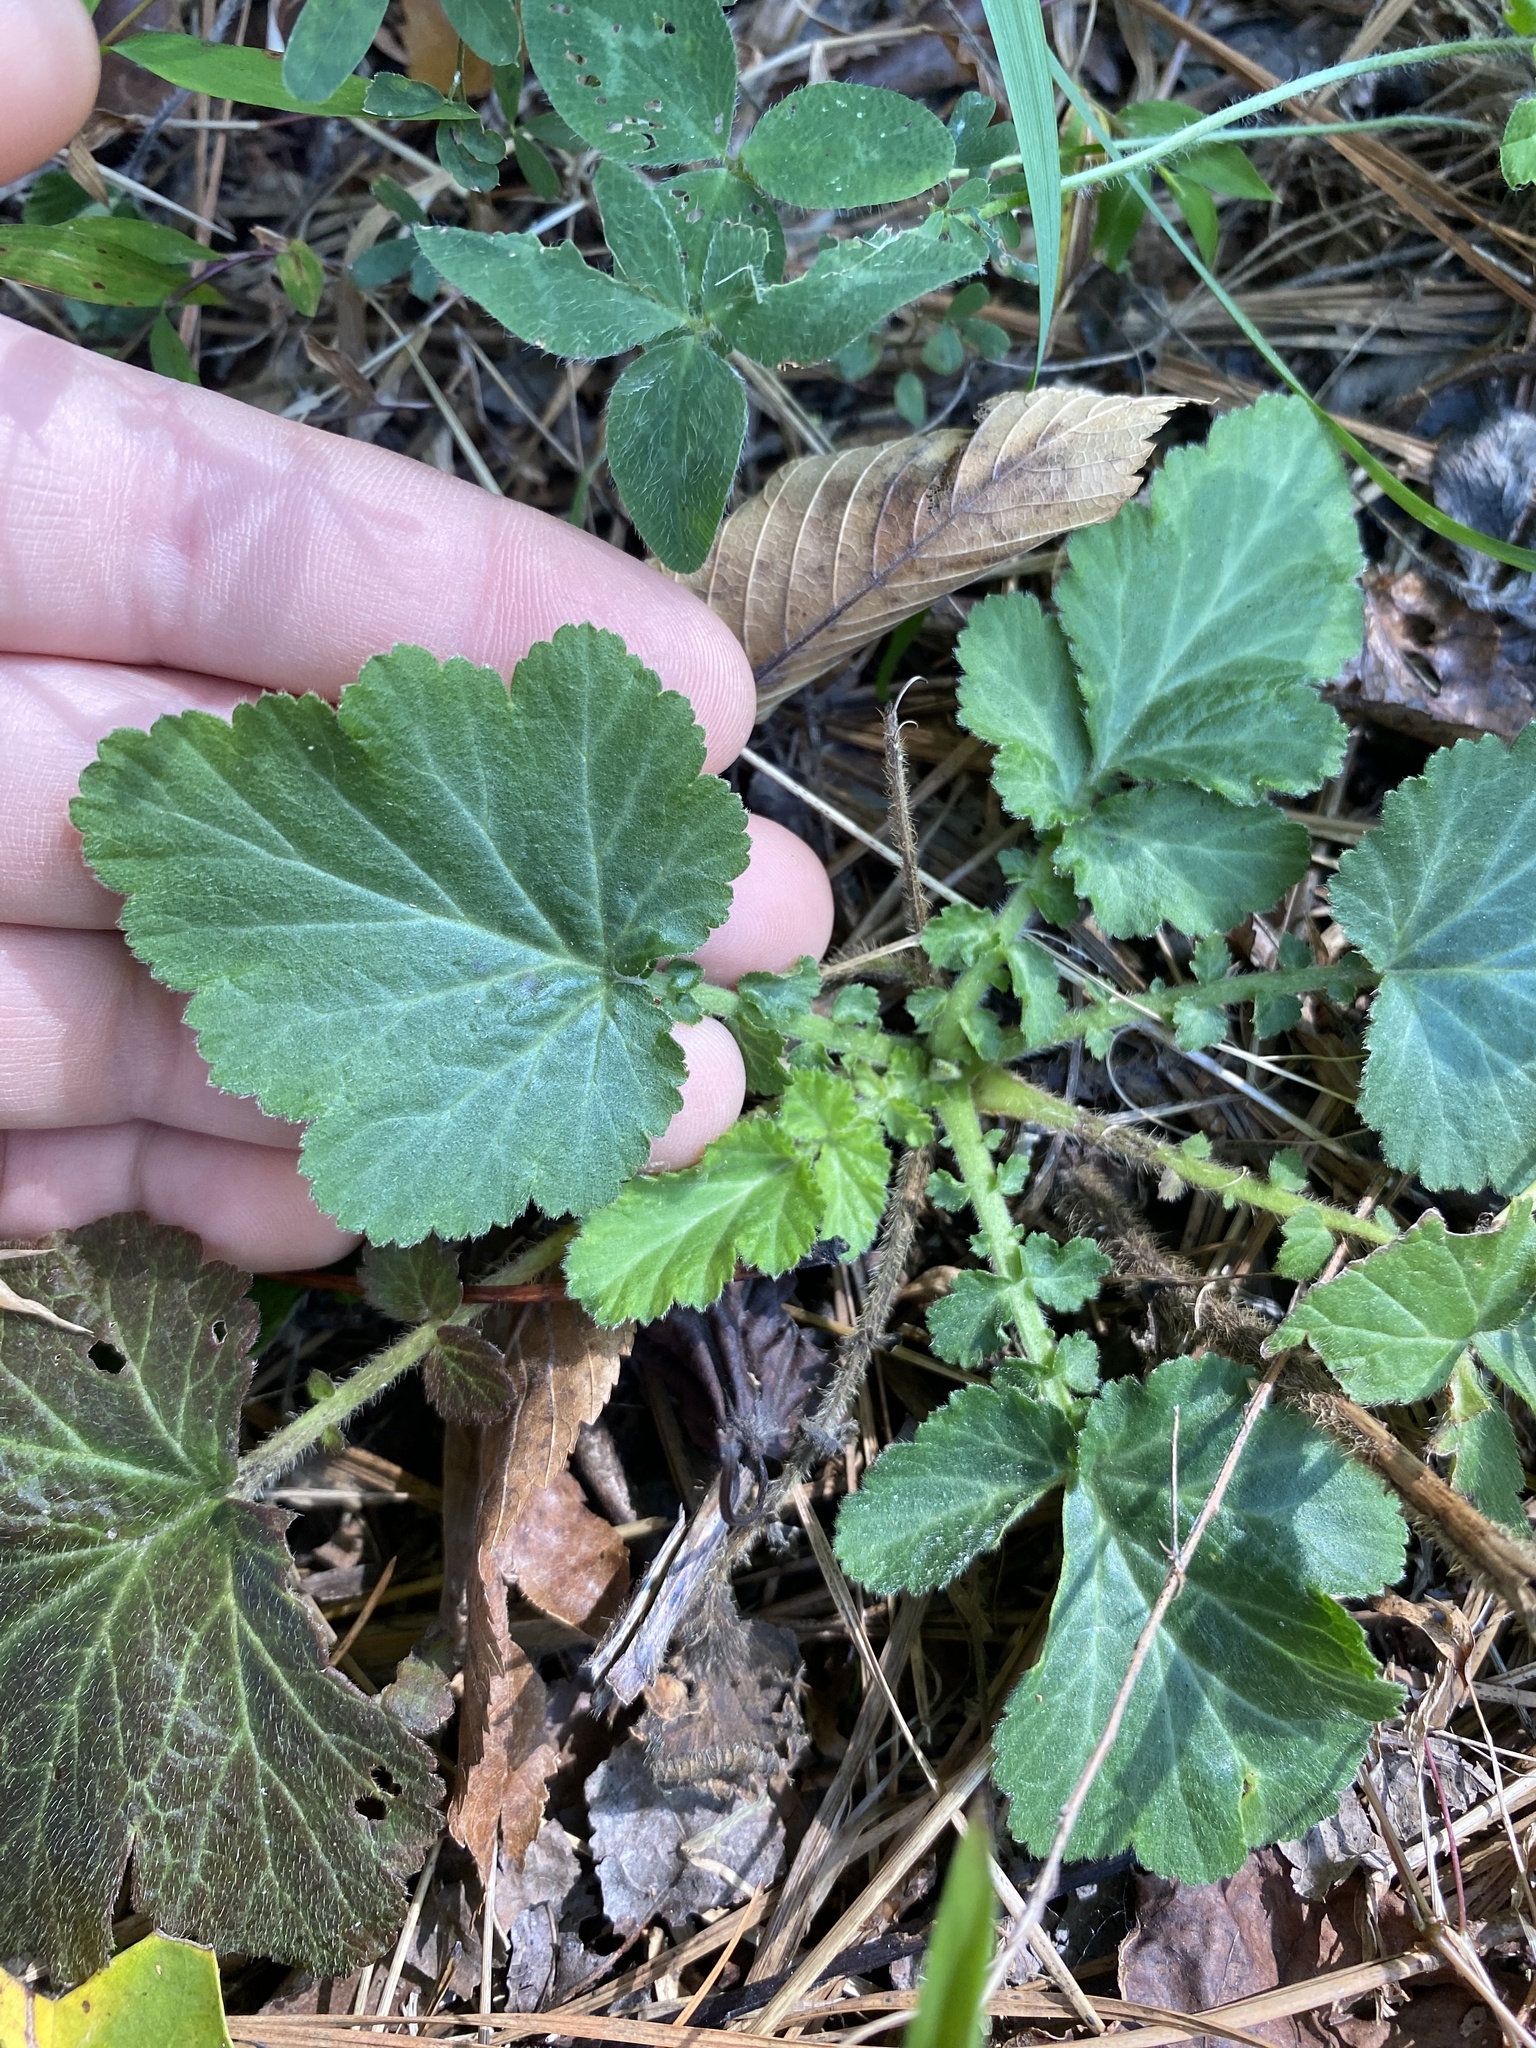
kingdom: Plantae
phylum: Tracheophyta
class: Magnoliopsida
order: Rosales
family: Rosaceae
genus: Geum
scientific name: Geum canadense
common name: White avens
